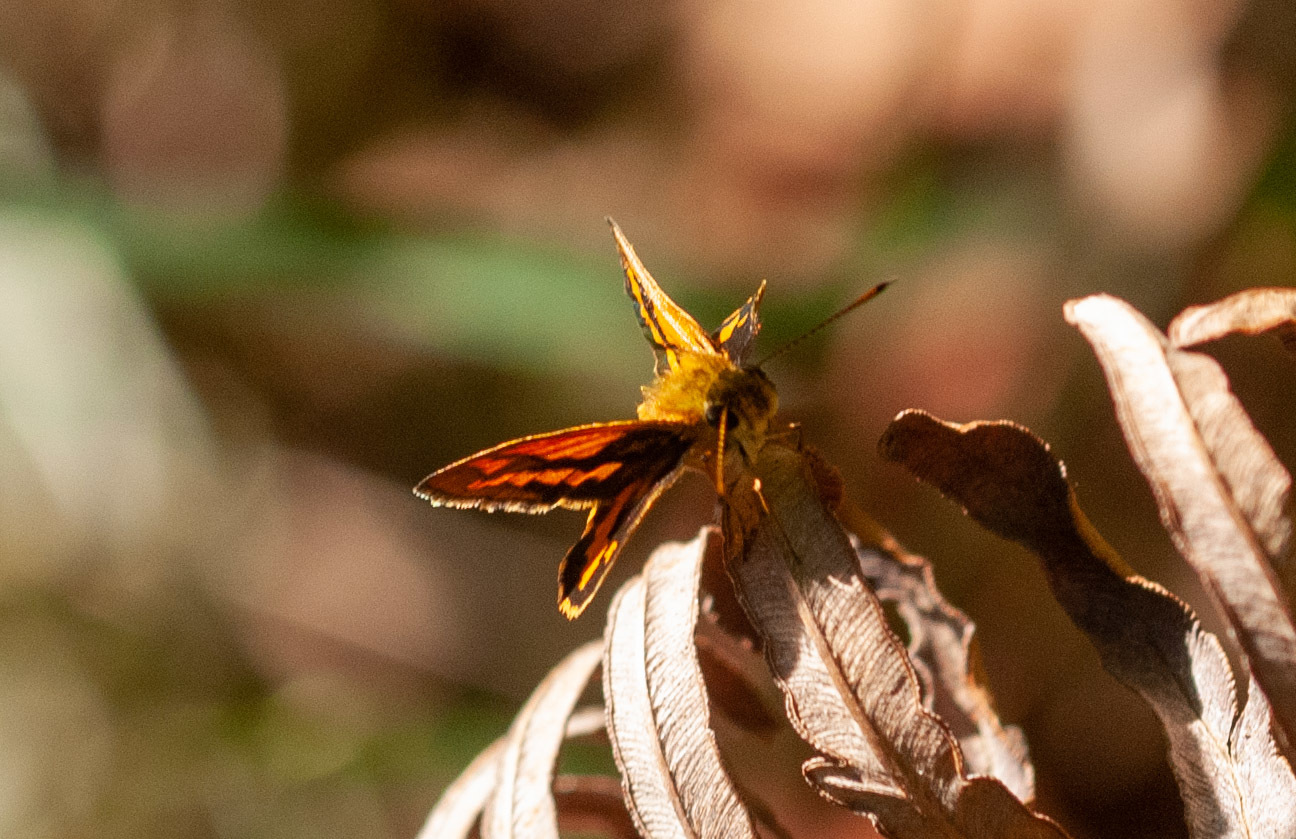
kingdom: Animalia
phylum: Arthropoda
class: Insecta
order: Lepidoptera
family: Hesperiidae
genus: Suniana
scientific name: Suniana sunias
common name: Wide-brand grass-dart
